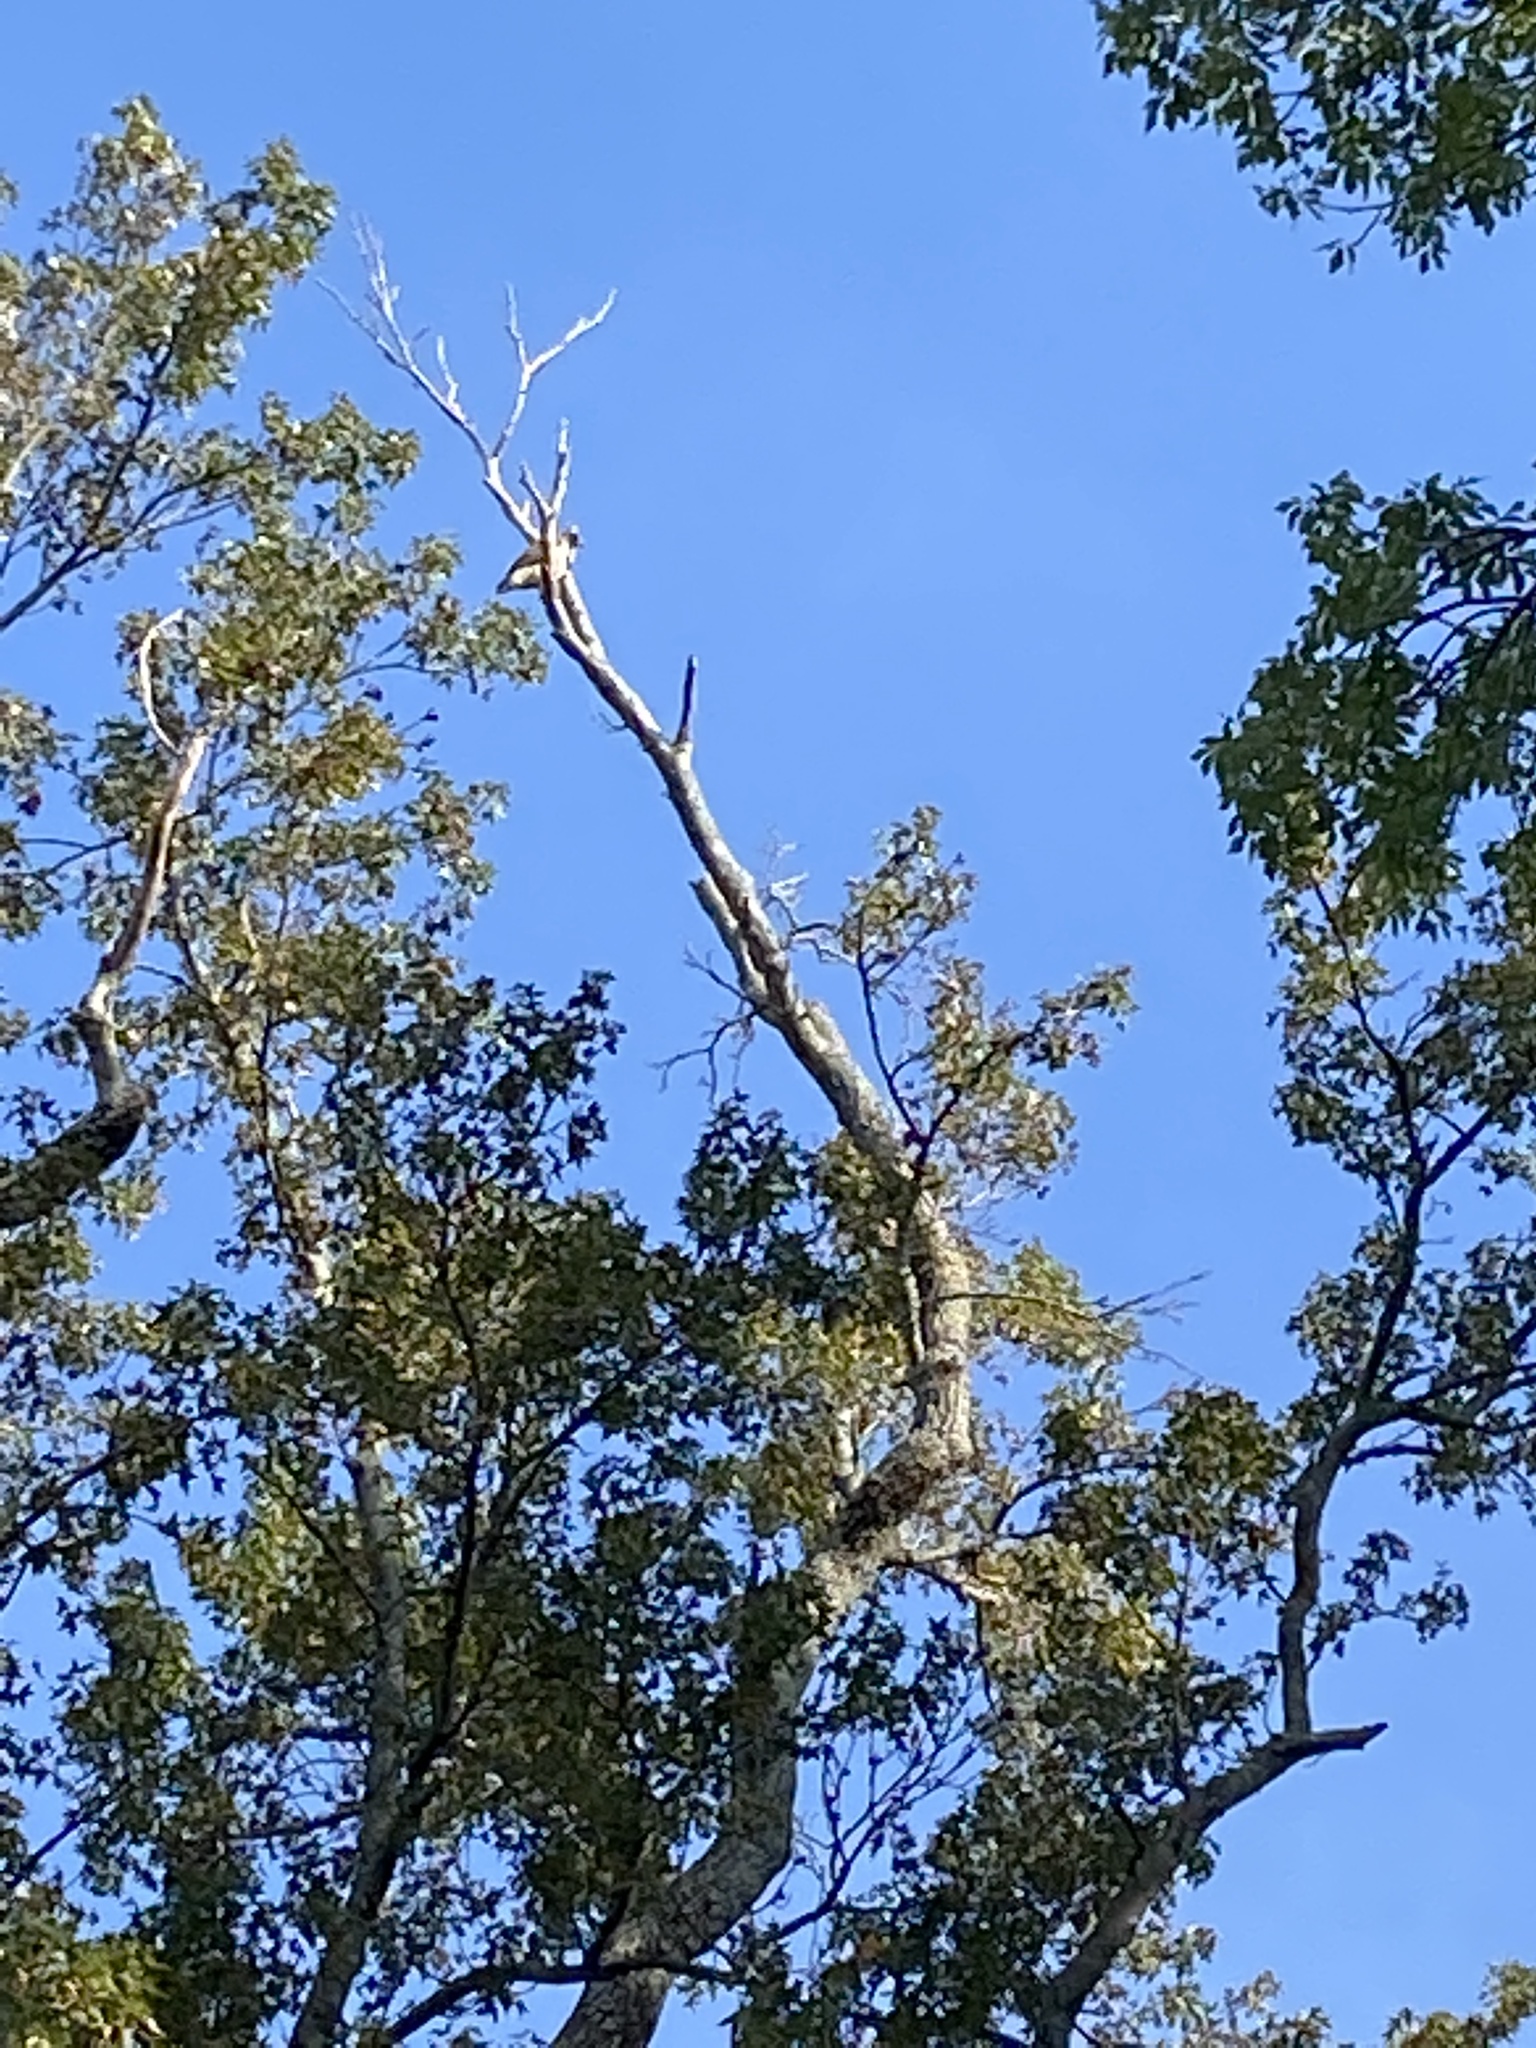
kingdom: Animalia
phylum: Chordata
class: Aves
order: Accipitriformes
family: Accipitridae
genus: Buteo
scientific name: Buteo jamaicensis
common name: Red-tailed hawk
